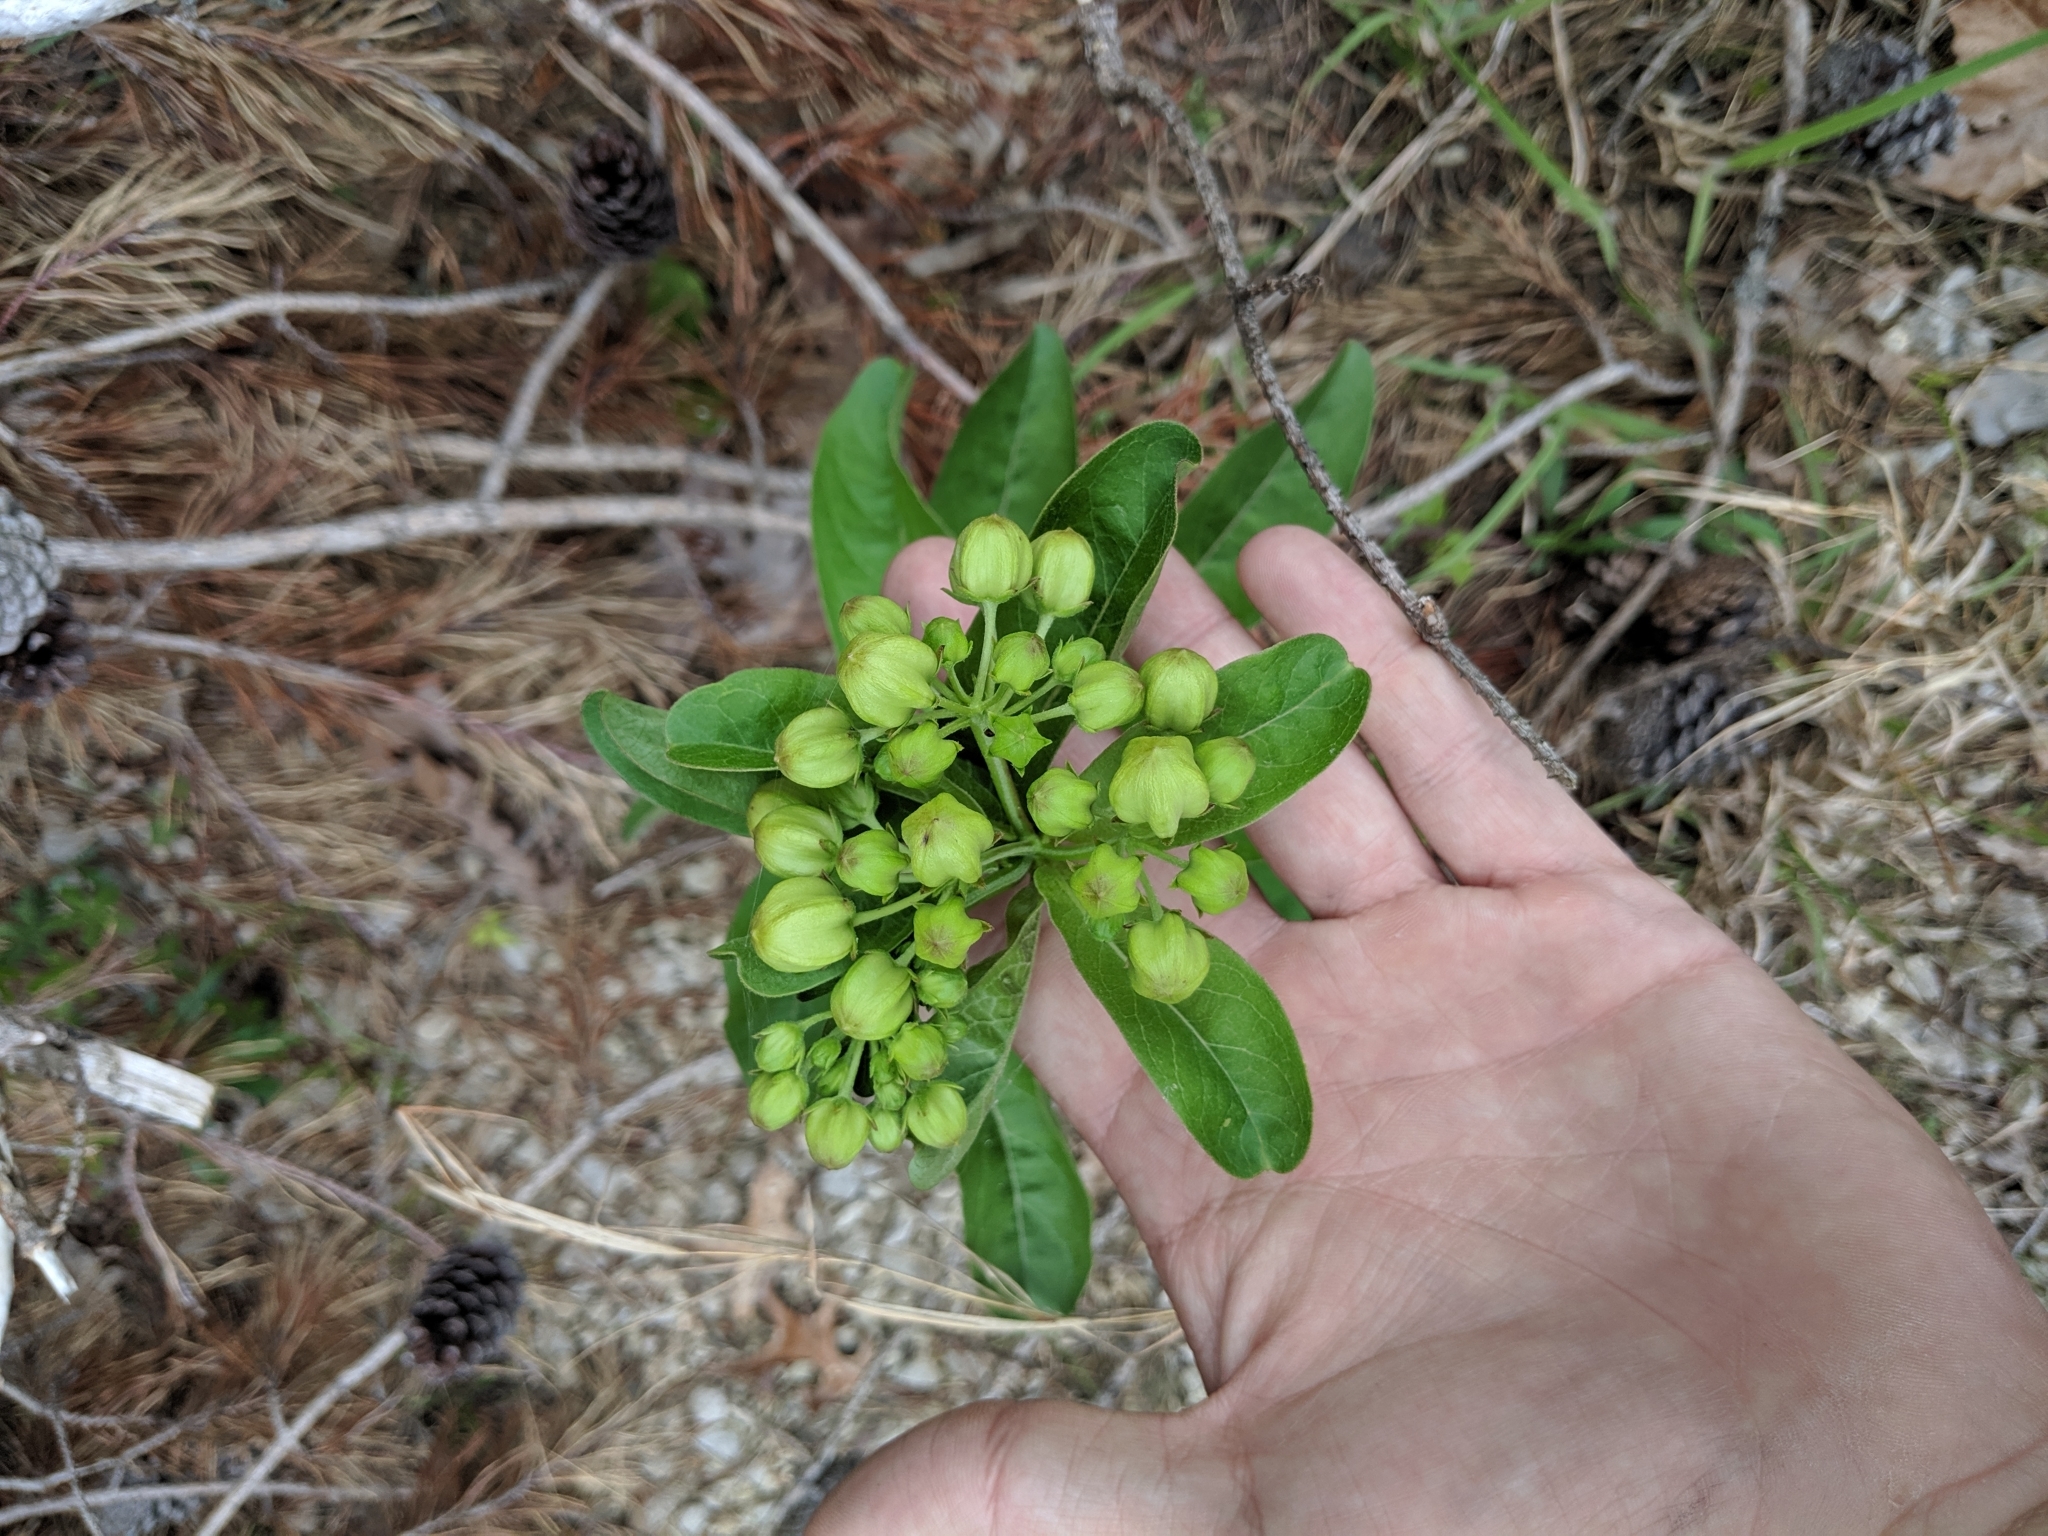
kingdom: Plantae
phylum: Tracheophyta
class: Magnoliopsida
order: Gentianales
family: Apocynaceae
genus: Asclepias
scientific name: Asclepias viridis
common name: Antelope-horns
